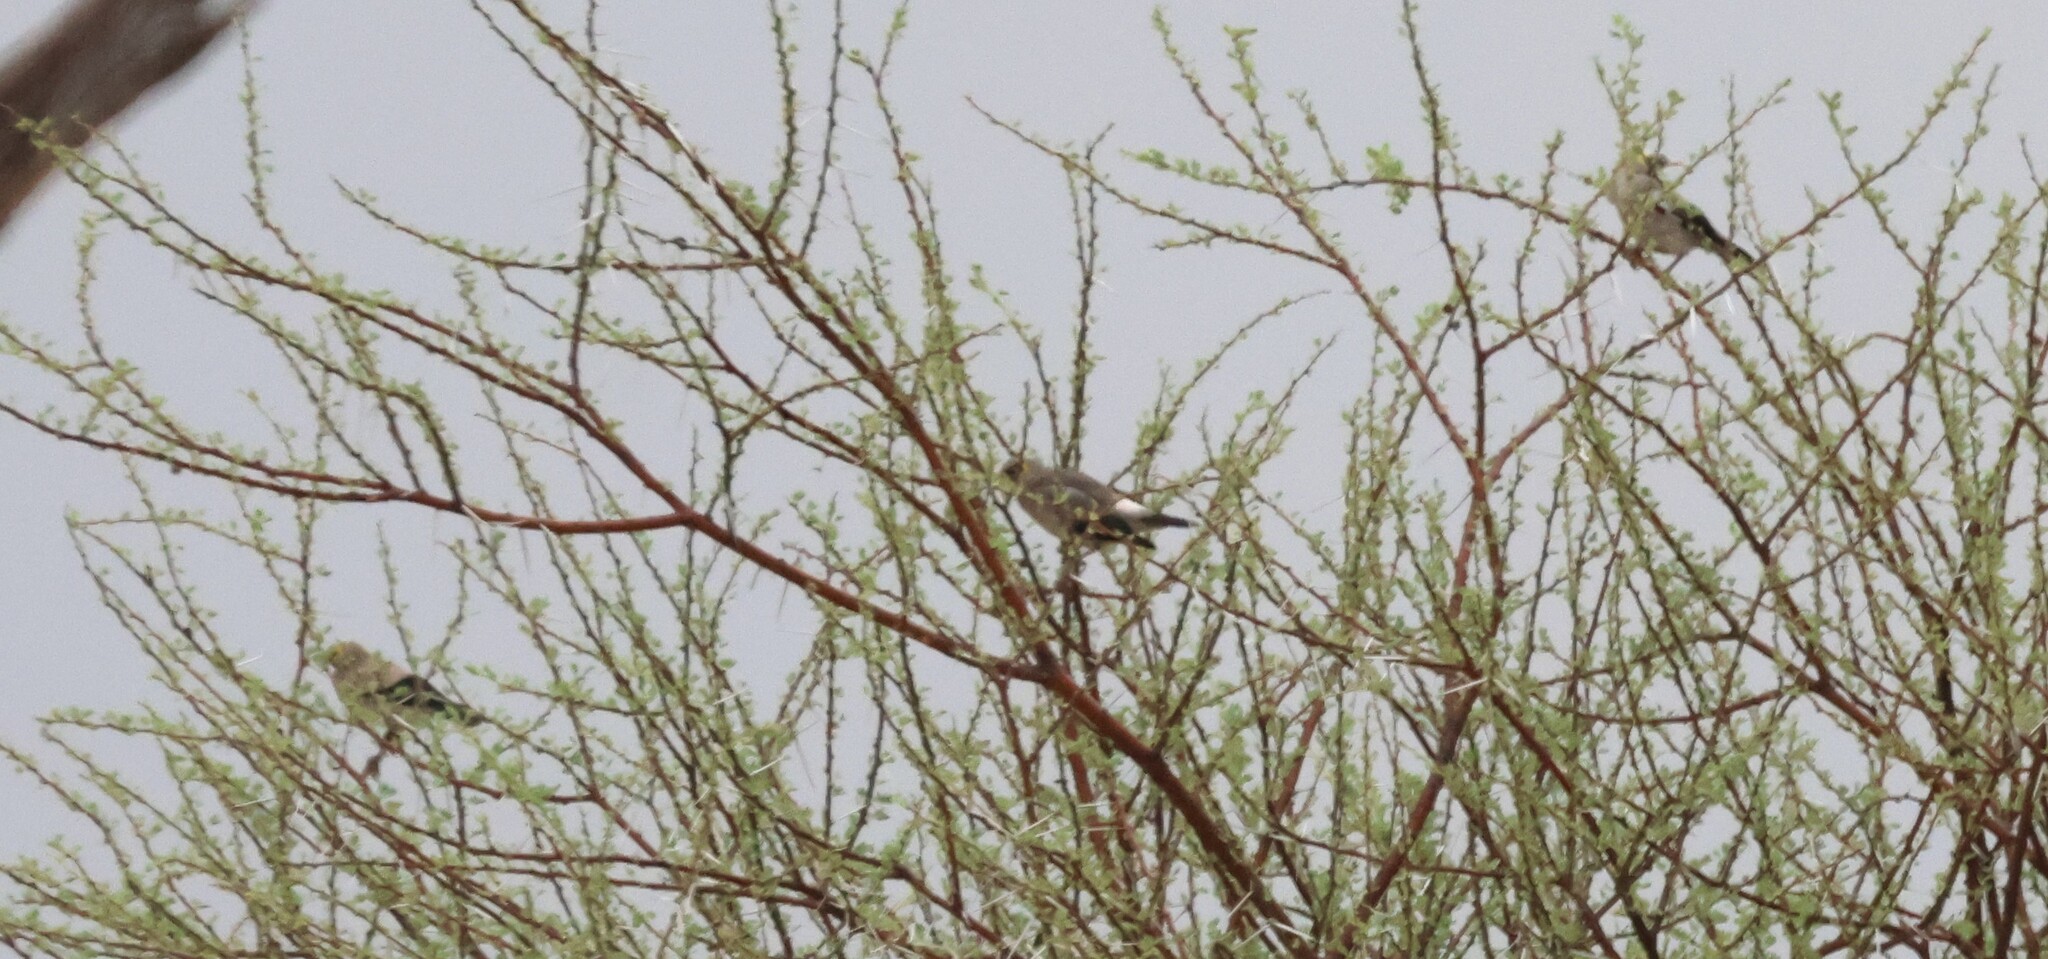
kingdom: Animalia
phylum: Chordata
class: Aves
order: Passeriformes
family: Sturnidae
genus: Creatophora
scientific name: Creatophora cinerea
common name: Wattled starling
